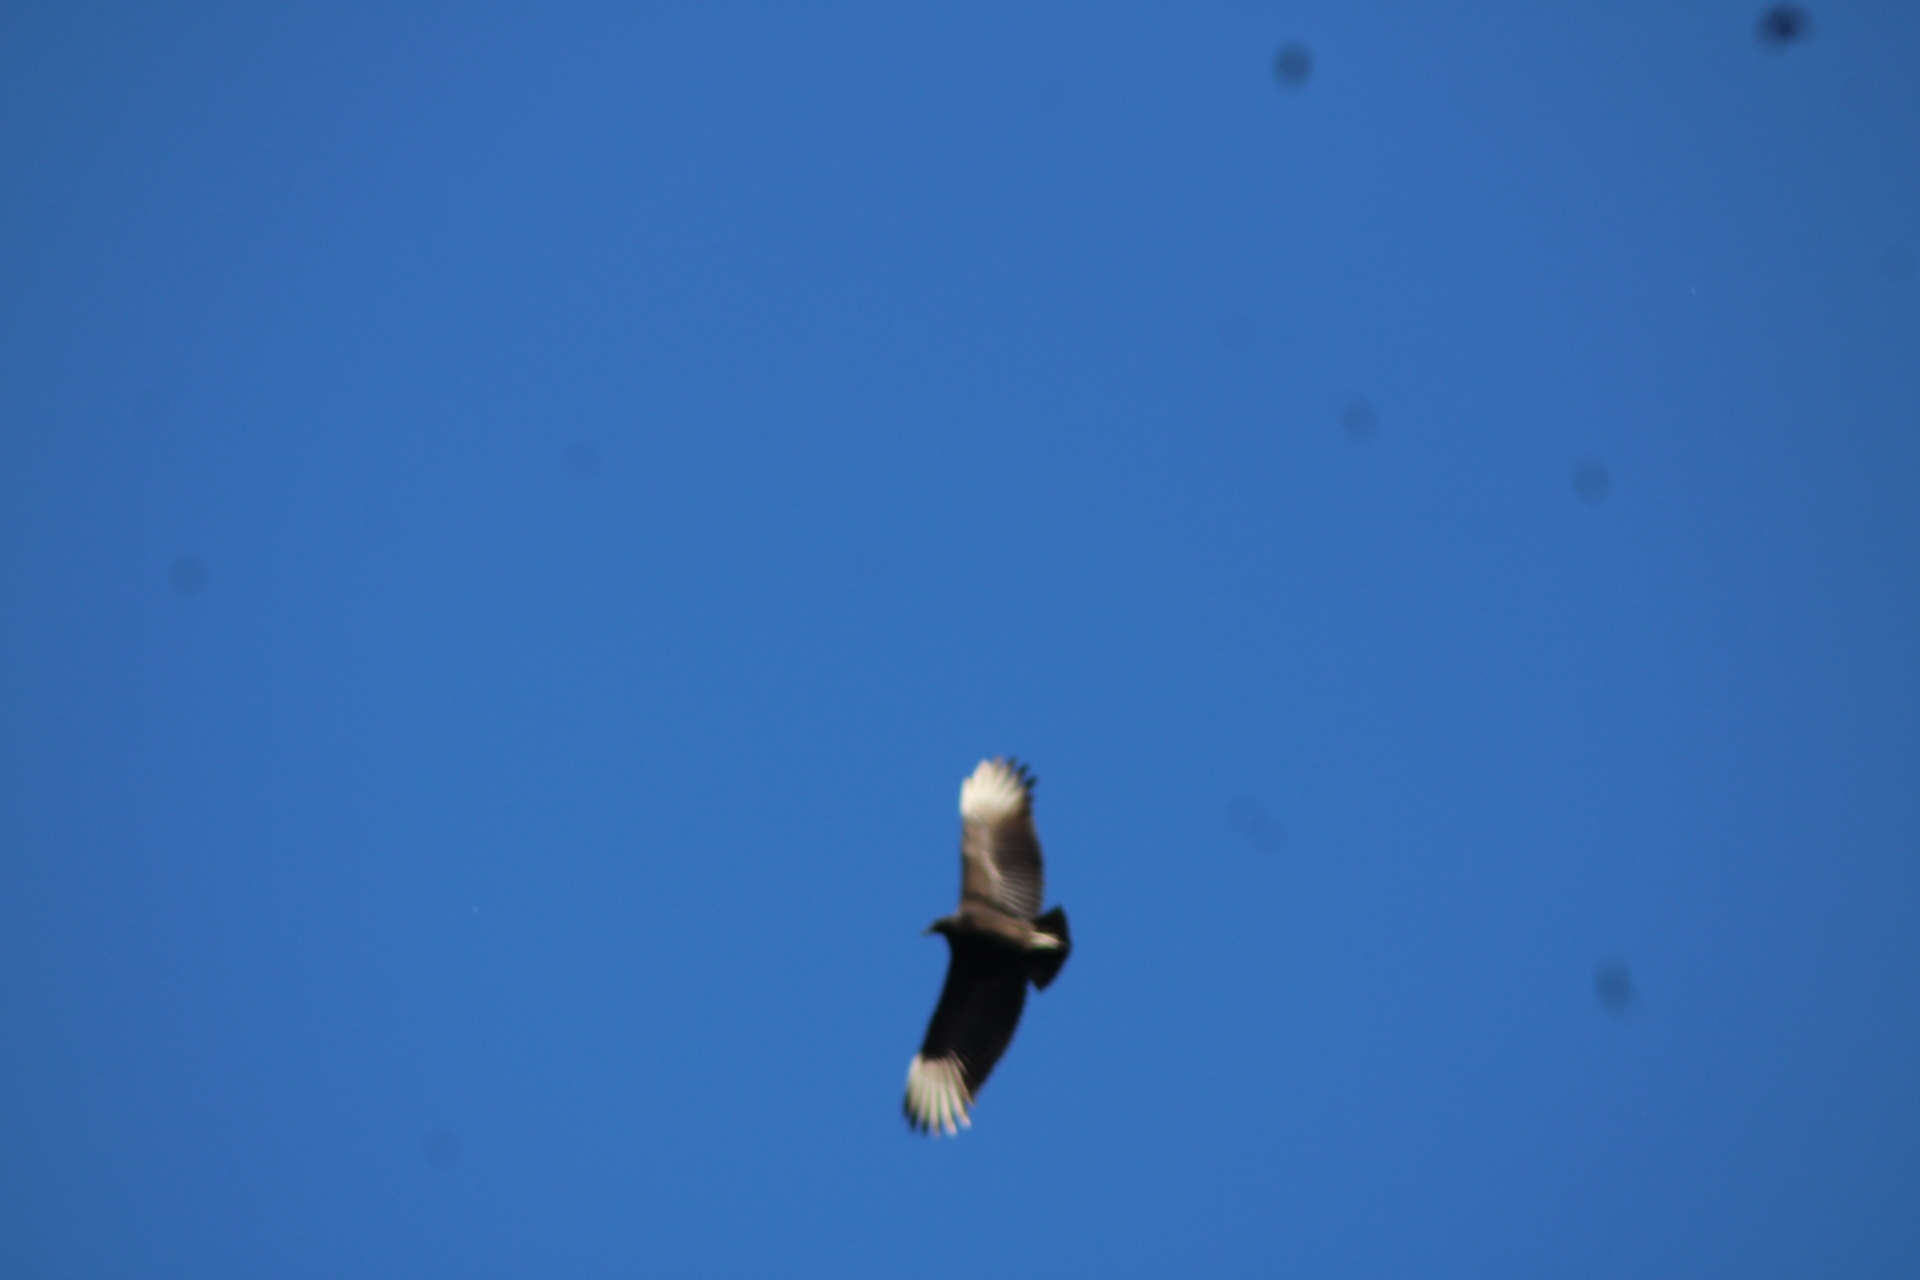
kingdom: Animalia
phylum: Chordata
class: Aves
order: Accipitriformes
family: Cathartidae
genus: Coragyps
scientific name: Coragyps atratus
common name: Black vulture
